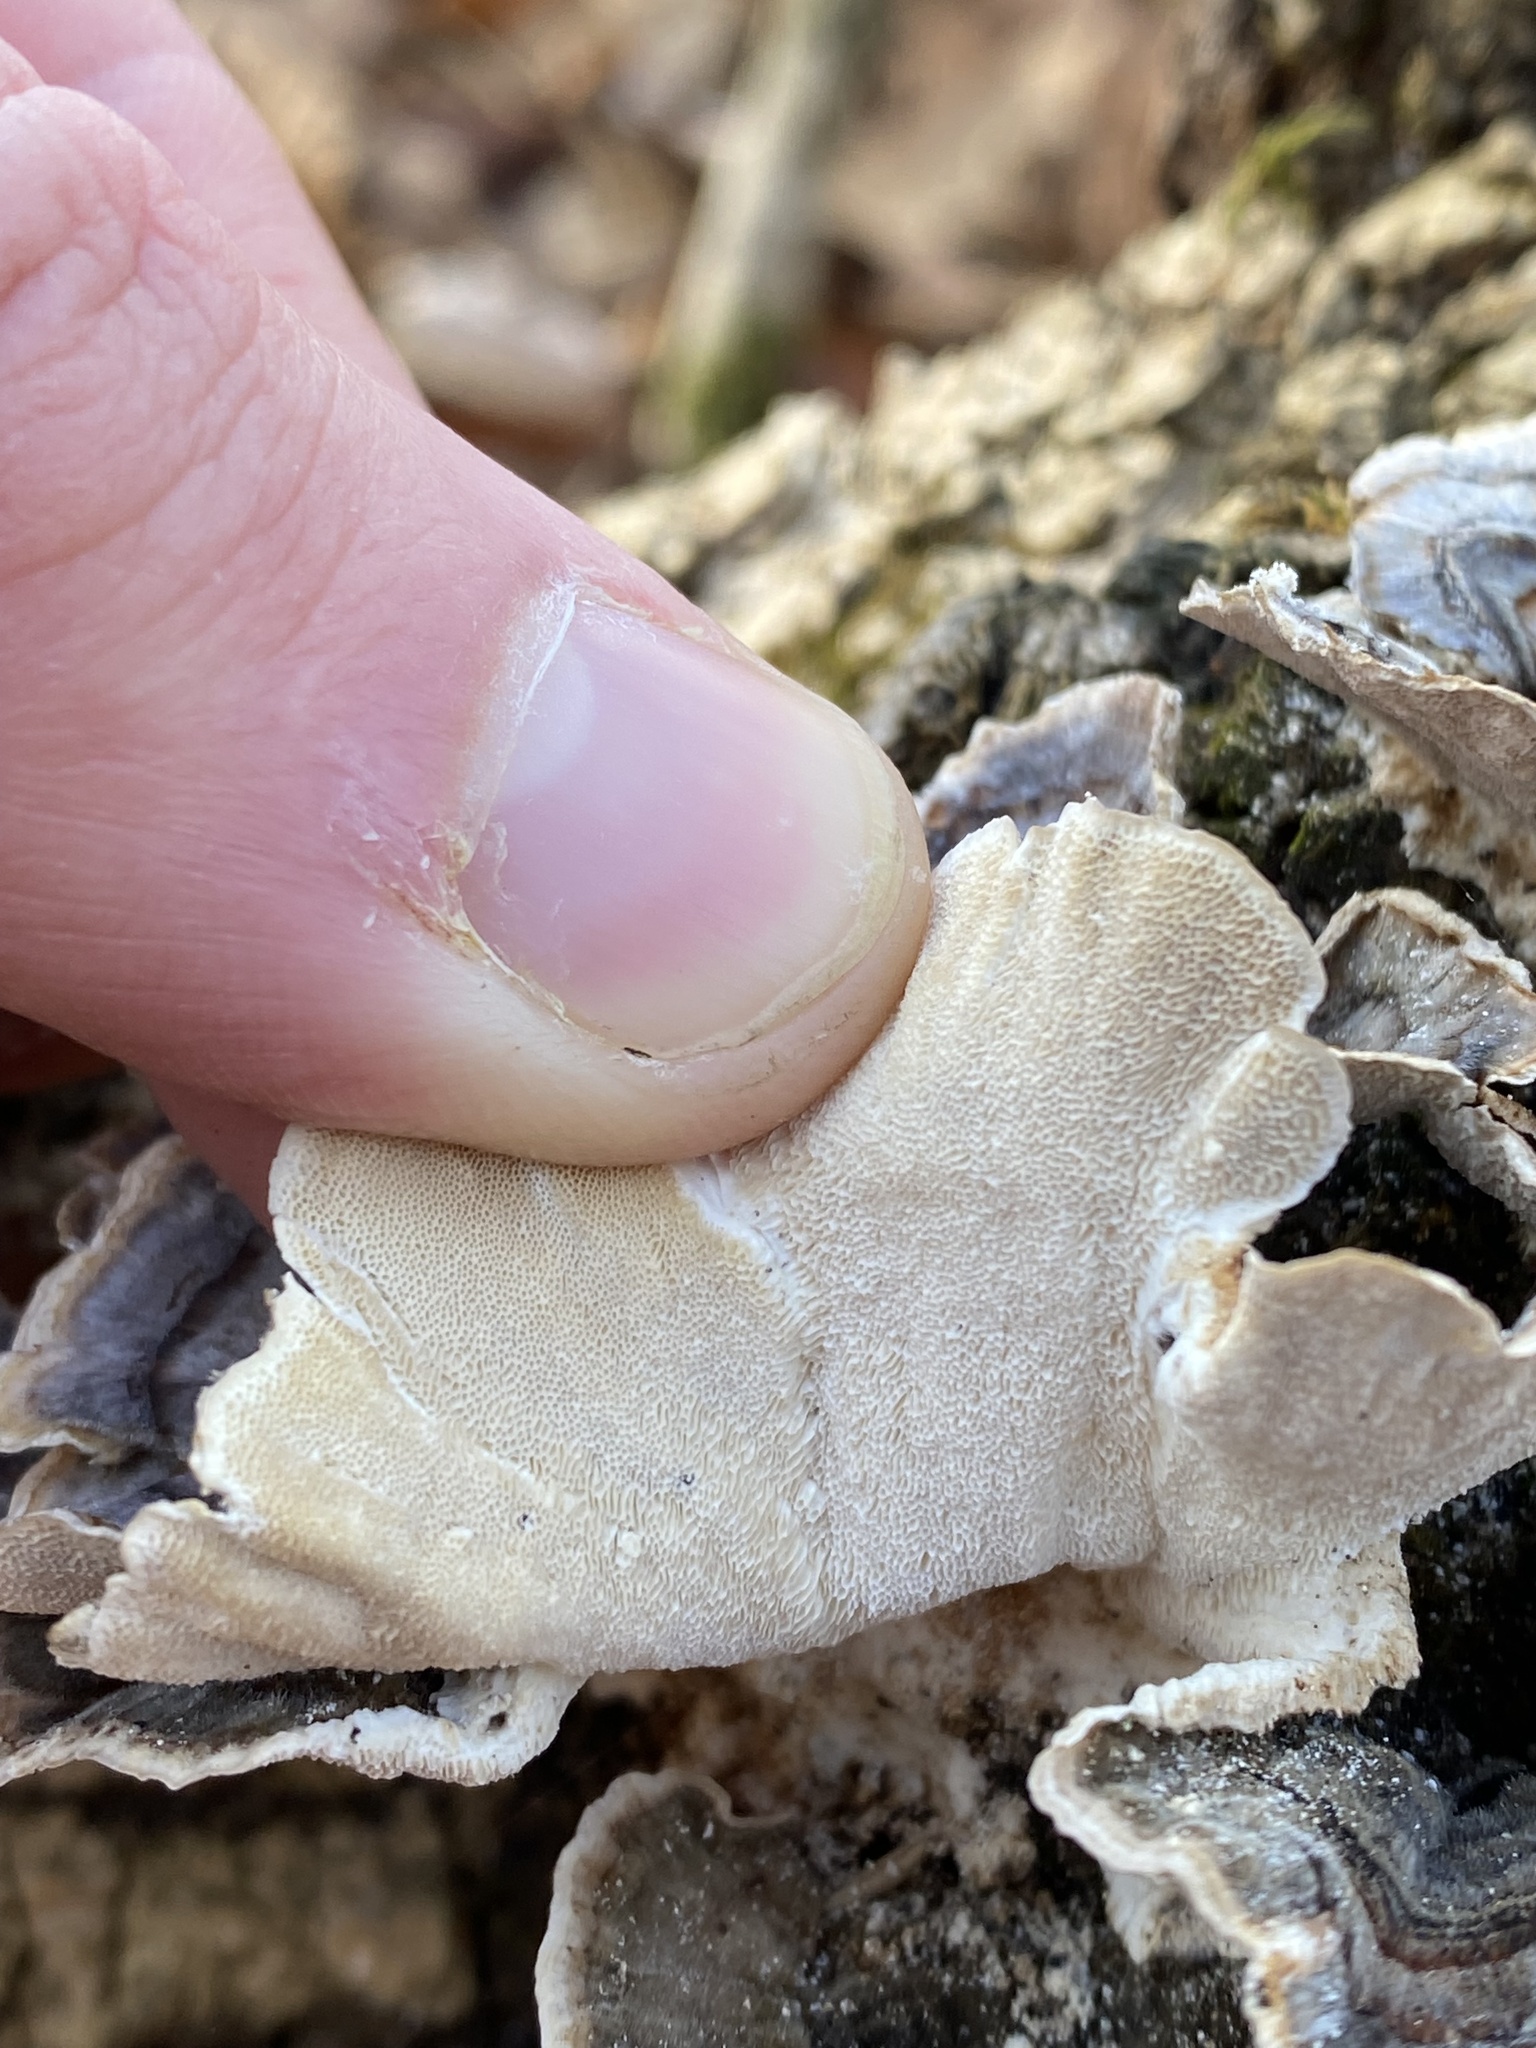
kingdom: Fungi
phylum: Basidiomycota
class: Agaricomycetes
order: Polyporales
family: Polyporaceae
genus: Trametes
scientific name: Trametes versicolor
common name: Turkeytail
